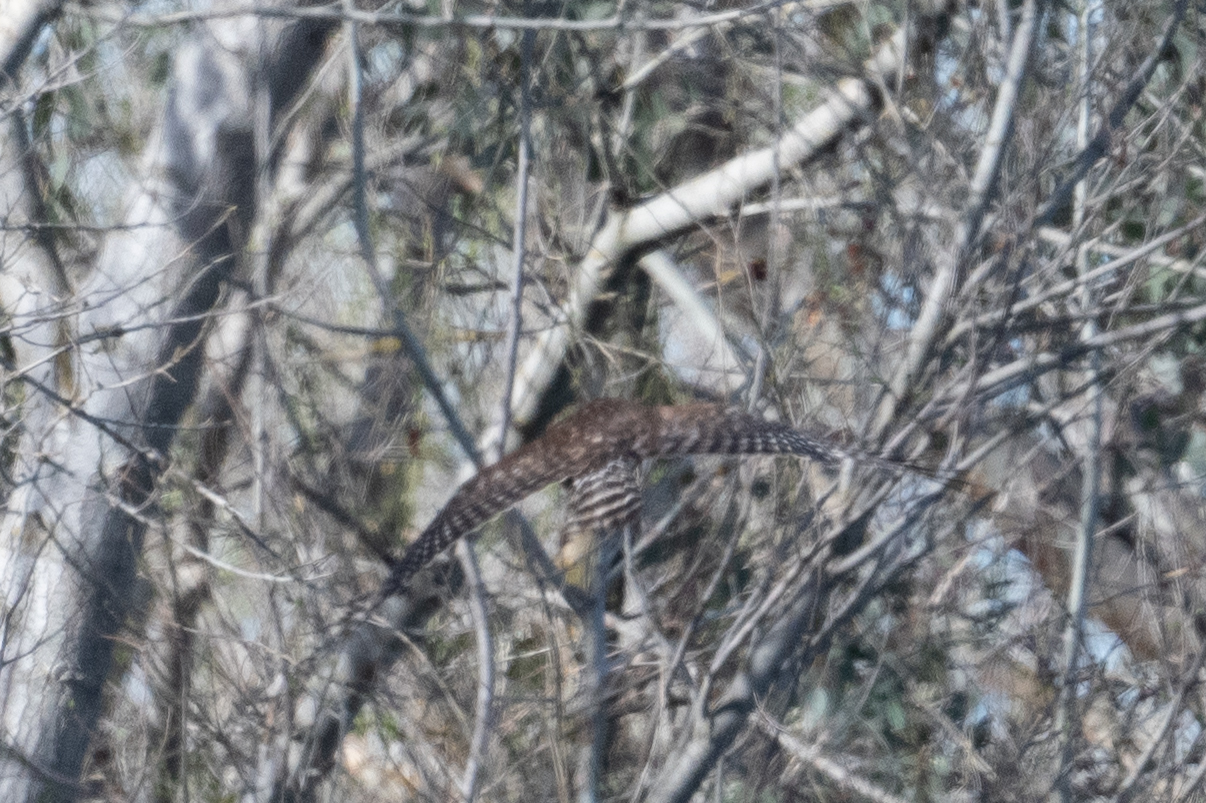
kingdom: Animalia
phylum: Chordata
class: Aves
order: Accipitriformes
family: Accipitridae
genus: Buteo
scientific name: Buteo lineatus
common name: Red-shouldered hawk
